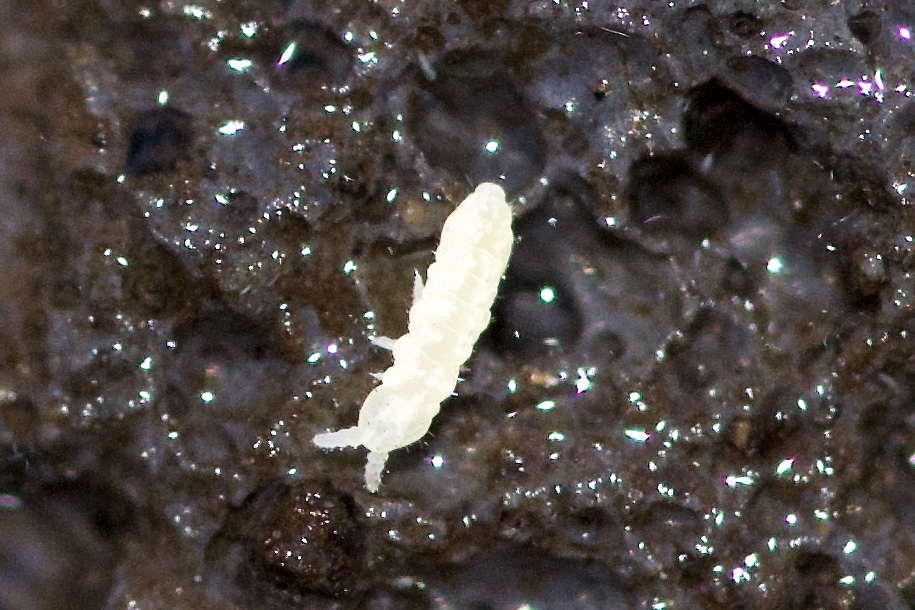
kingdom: Animalia
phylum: Arthropoda
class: Collembola
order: Poduromorpha
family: Neanuridae
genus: Anurida
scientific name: Anurida granaria
